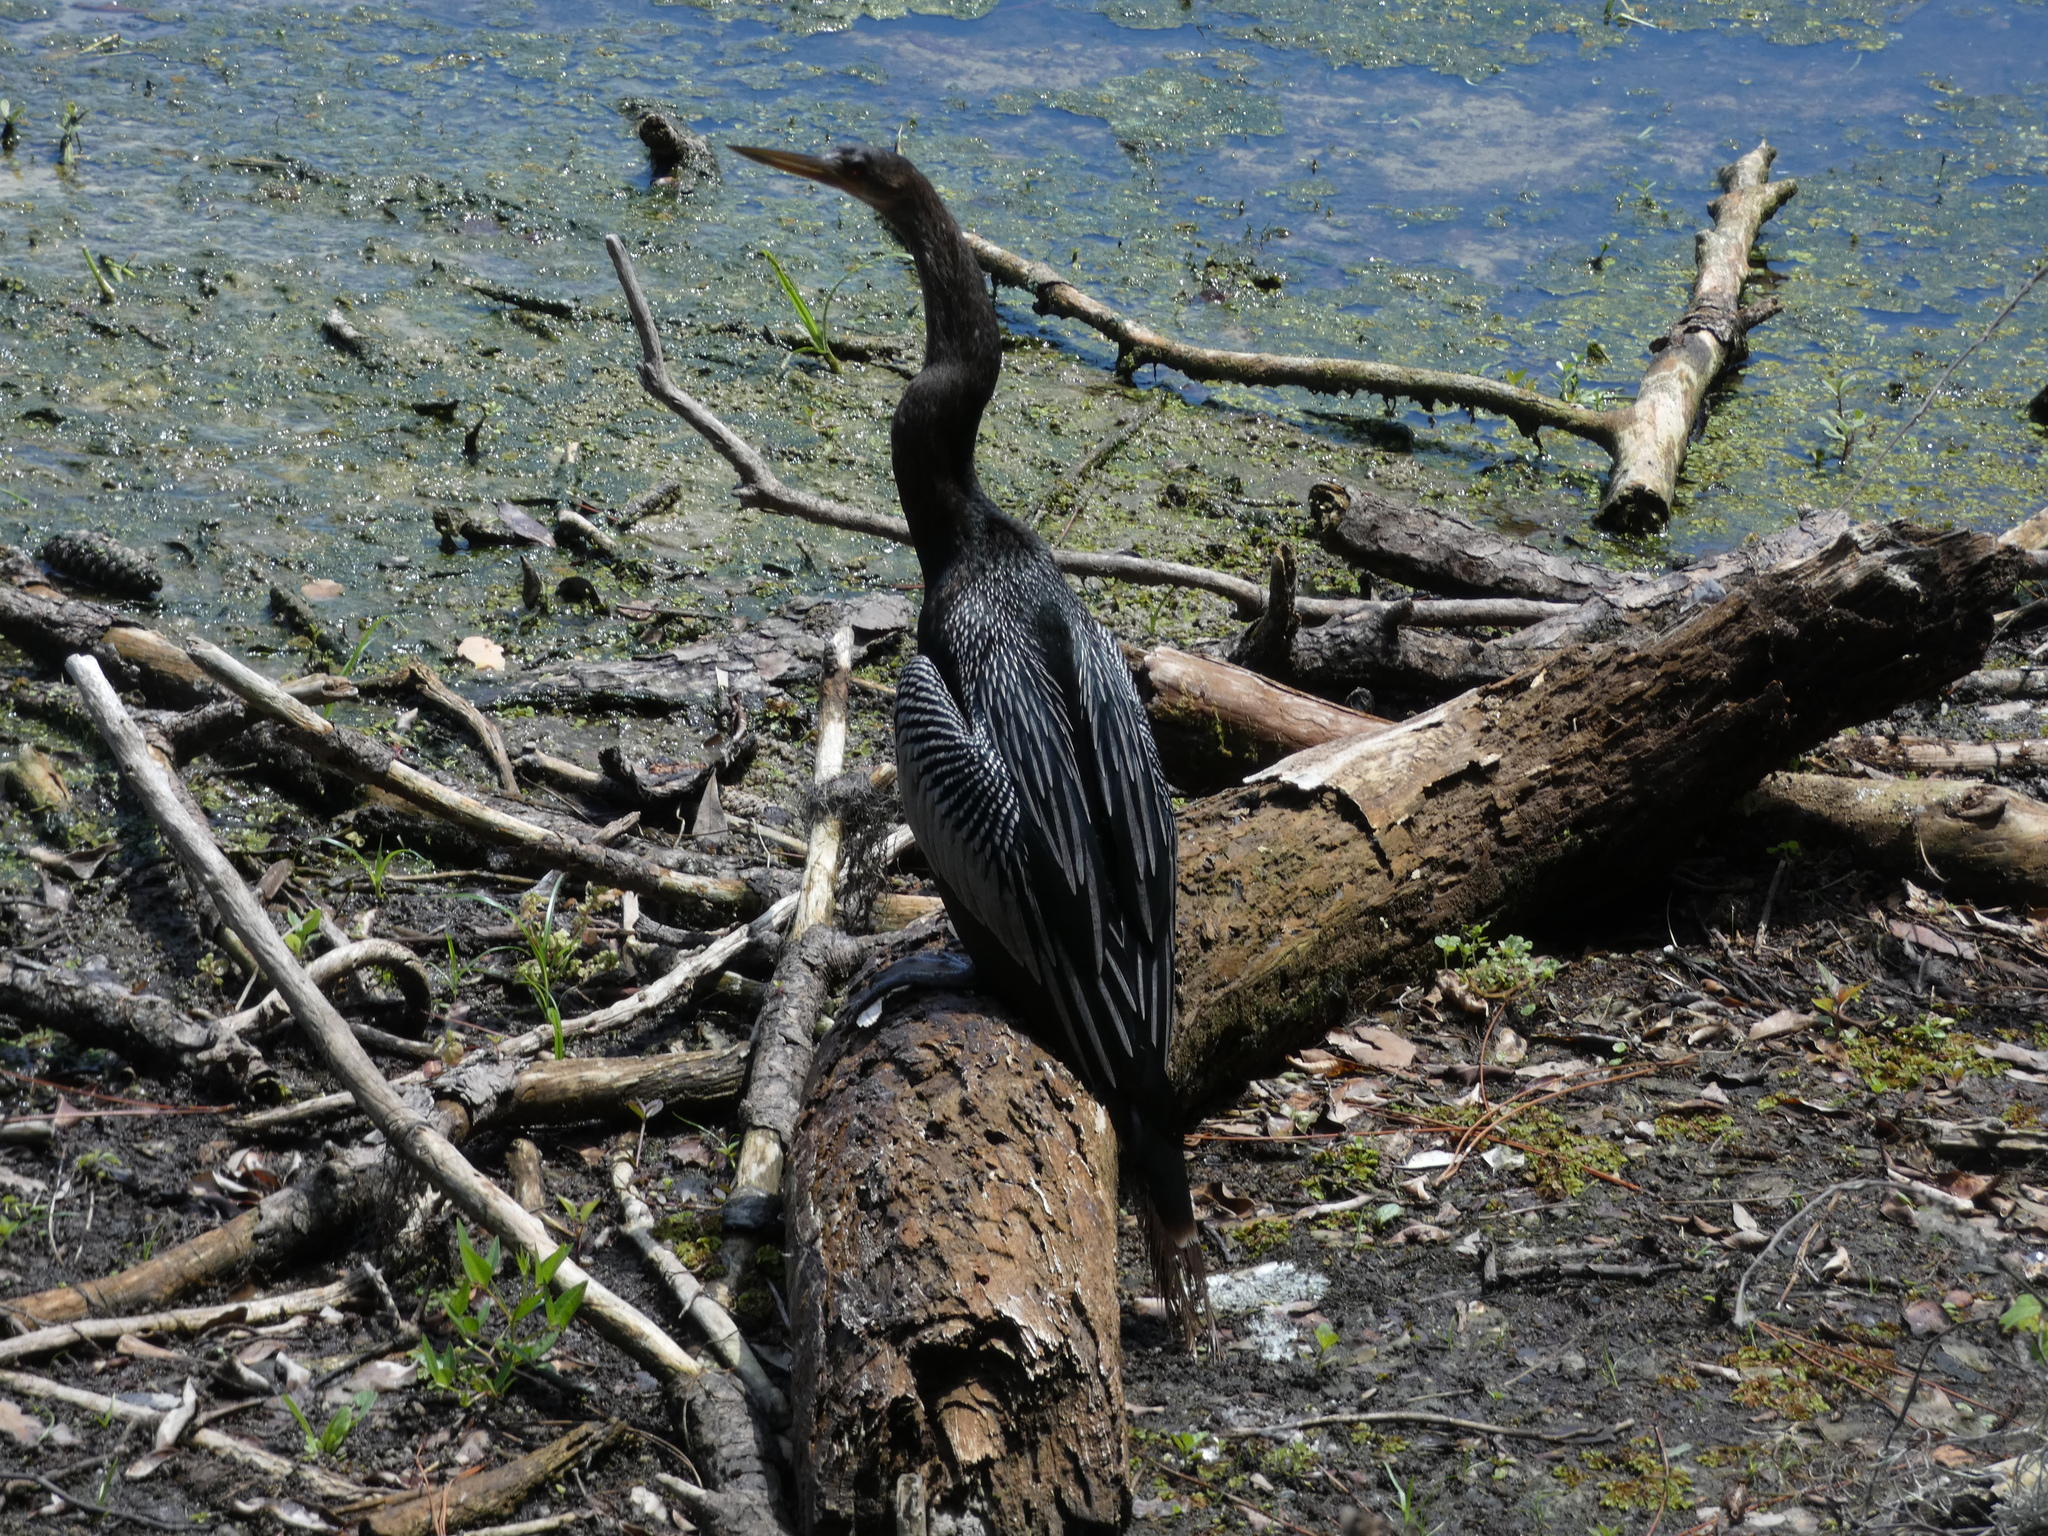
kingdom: Animalia
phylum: Chordata
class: Aves
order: Suliformes
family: Anhingidae
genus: Anhinga
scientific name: Anhinga anhinga
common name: Anhinga
